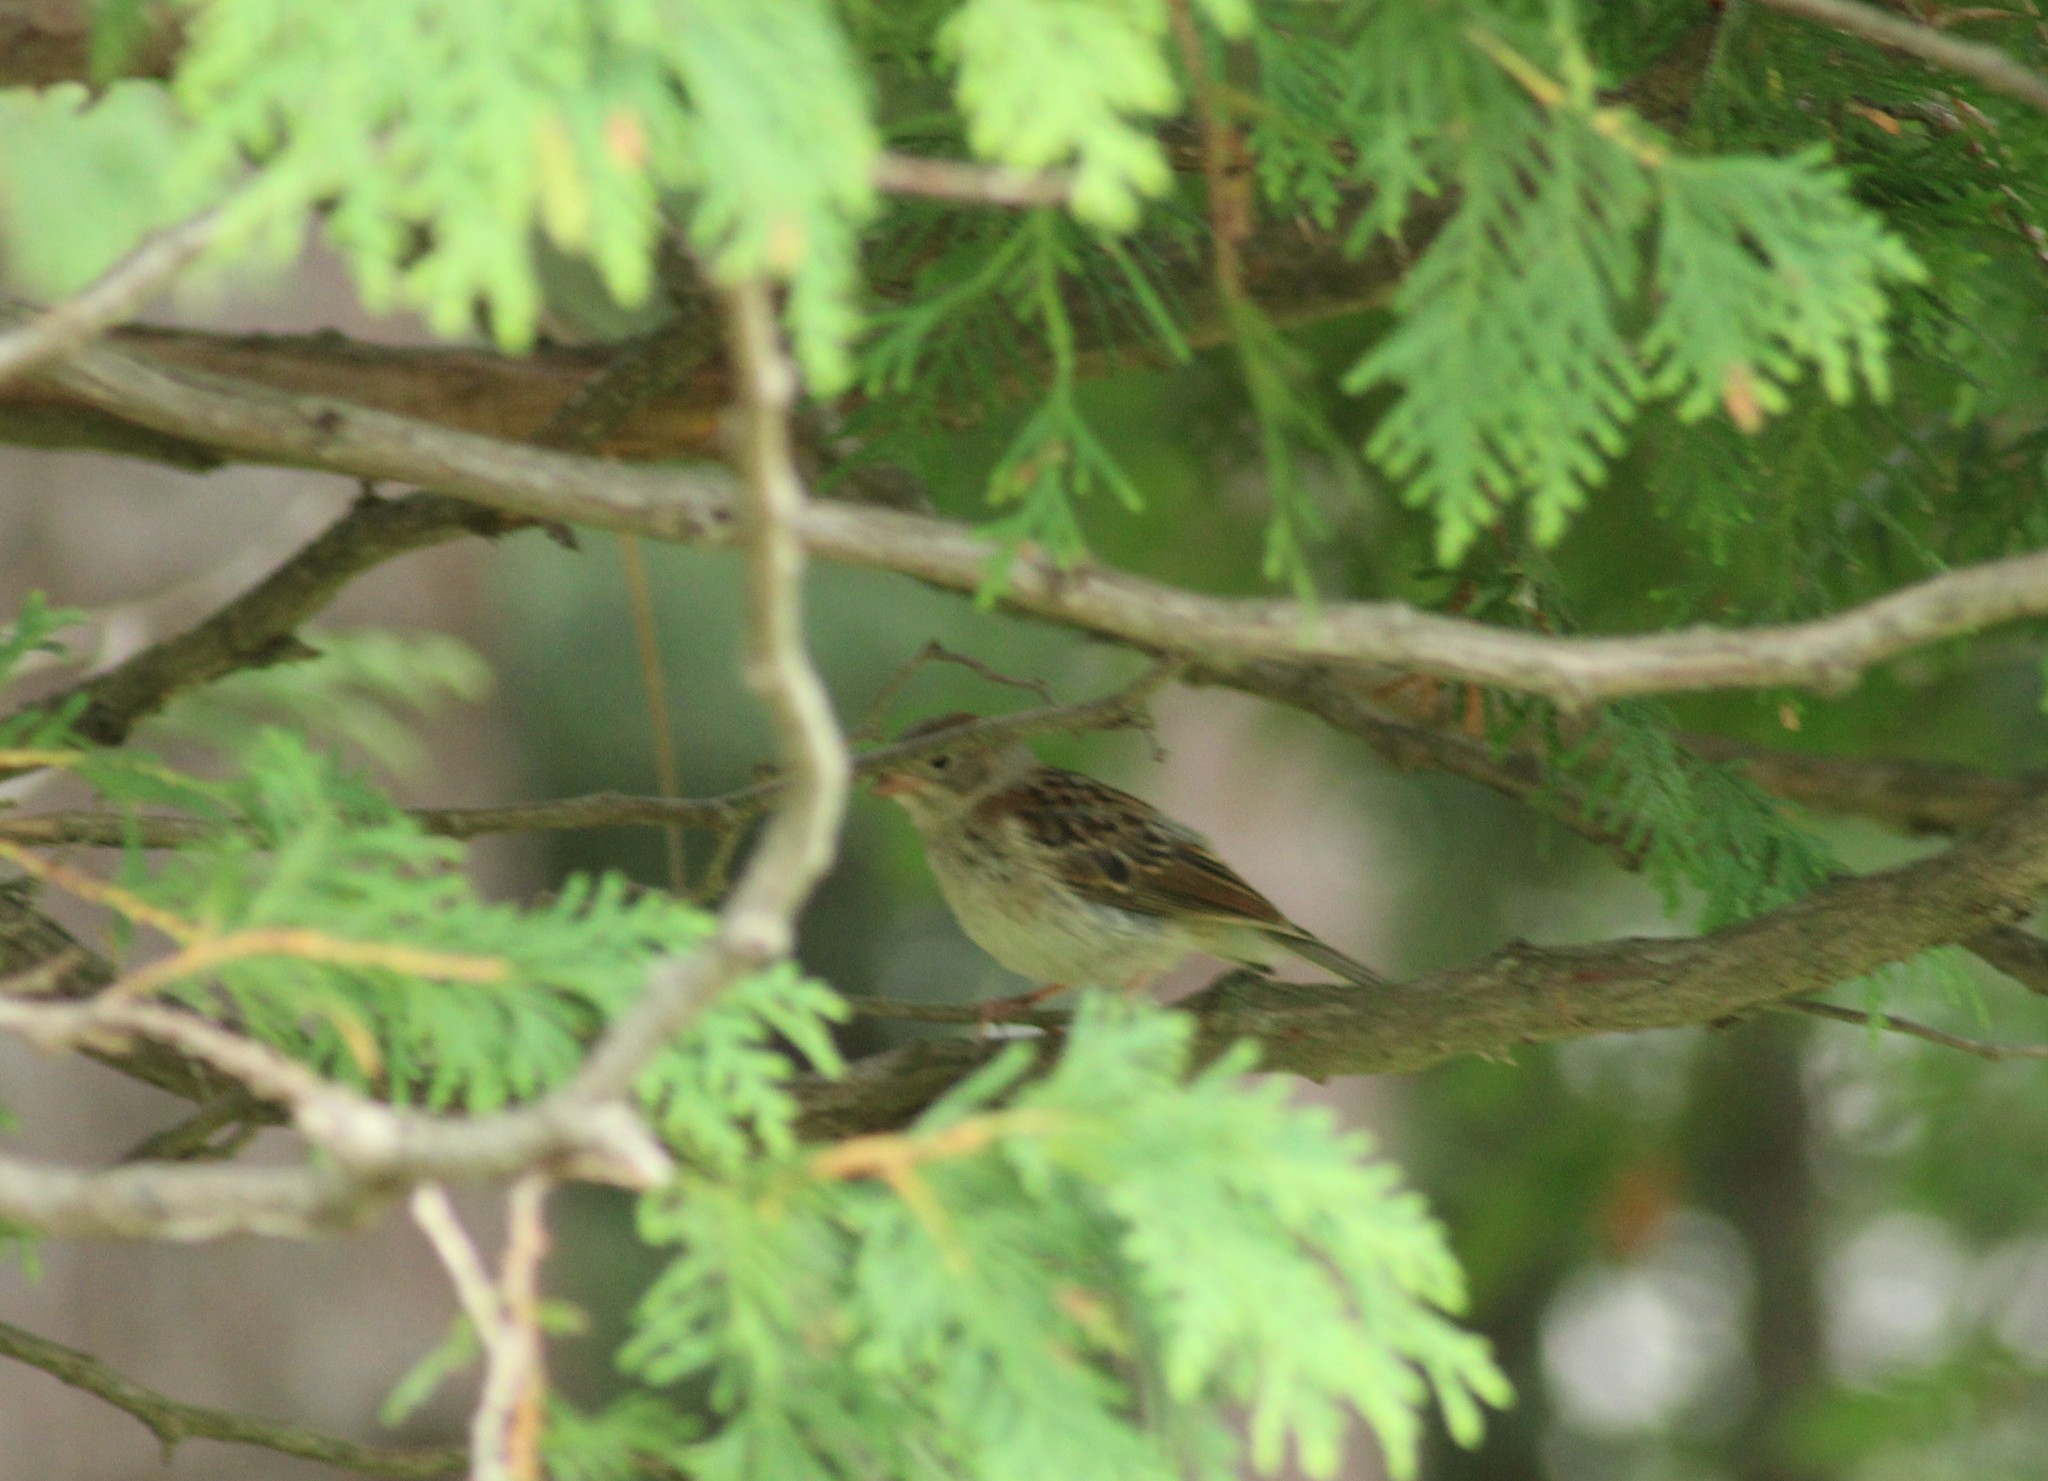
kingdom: Animalia
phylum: Chordata
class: Aves
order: Passeriformes
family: Passerellidae
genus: Spizella
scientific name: Spizella pusilla
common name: Field sparrow
